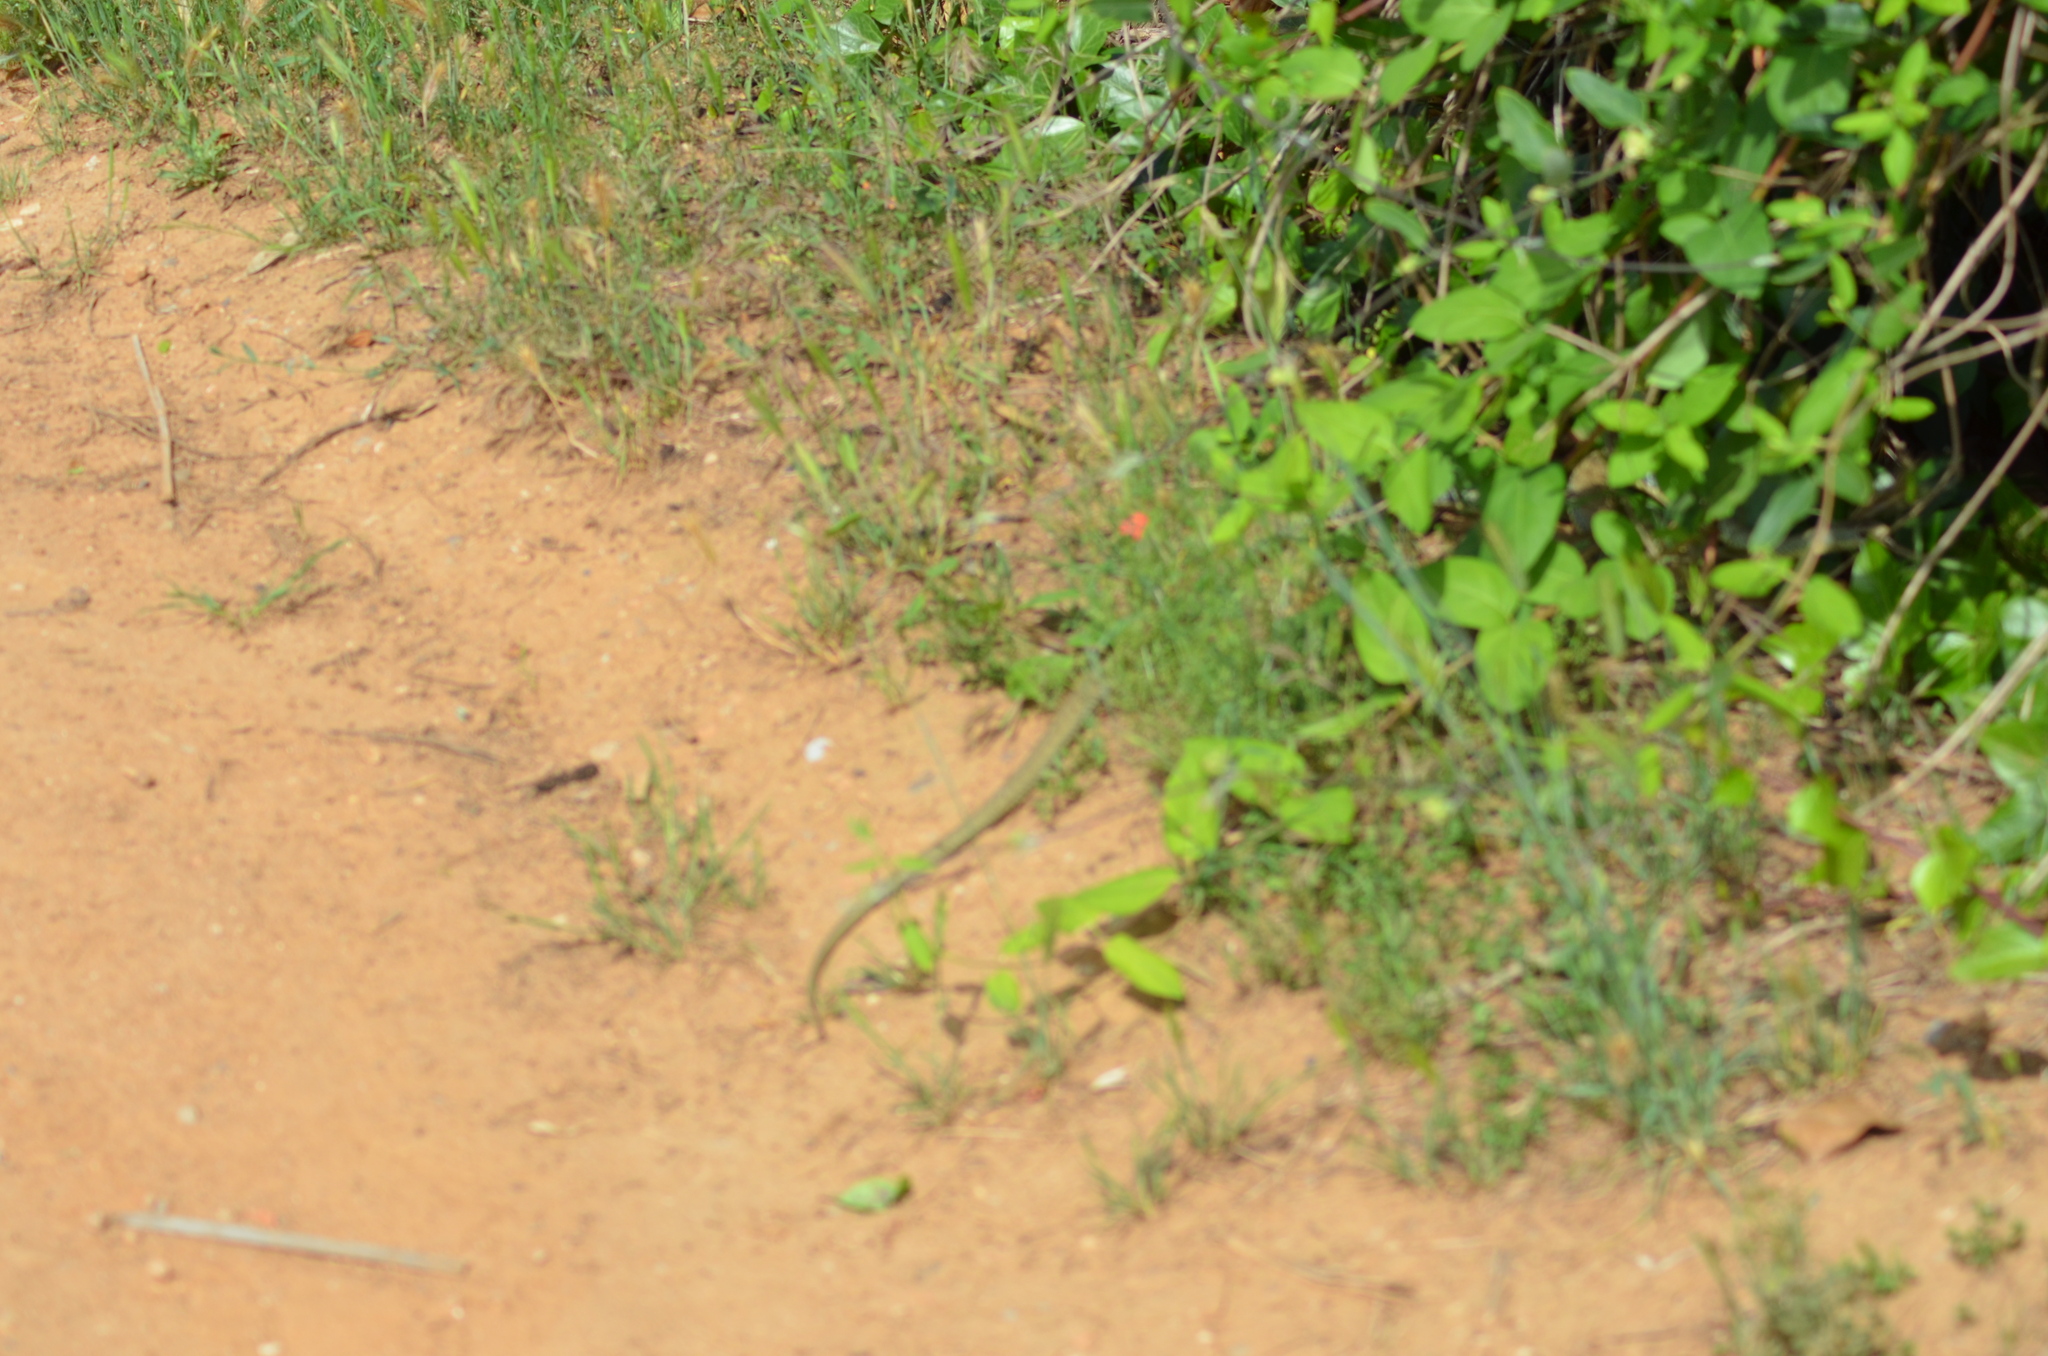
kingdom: Animalia
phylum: Chordata
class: Squamata
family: Psammophiidae
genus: Malpolon
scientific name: Malpolon monspessulanus
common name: Montpellier snake
